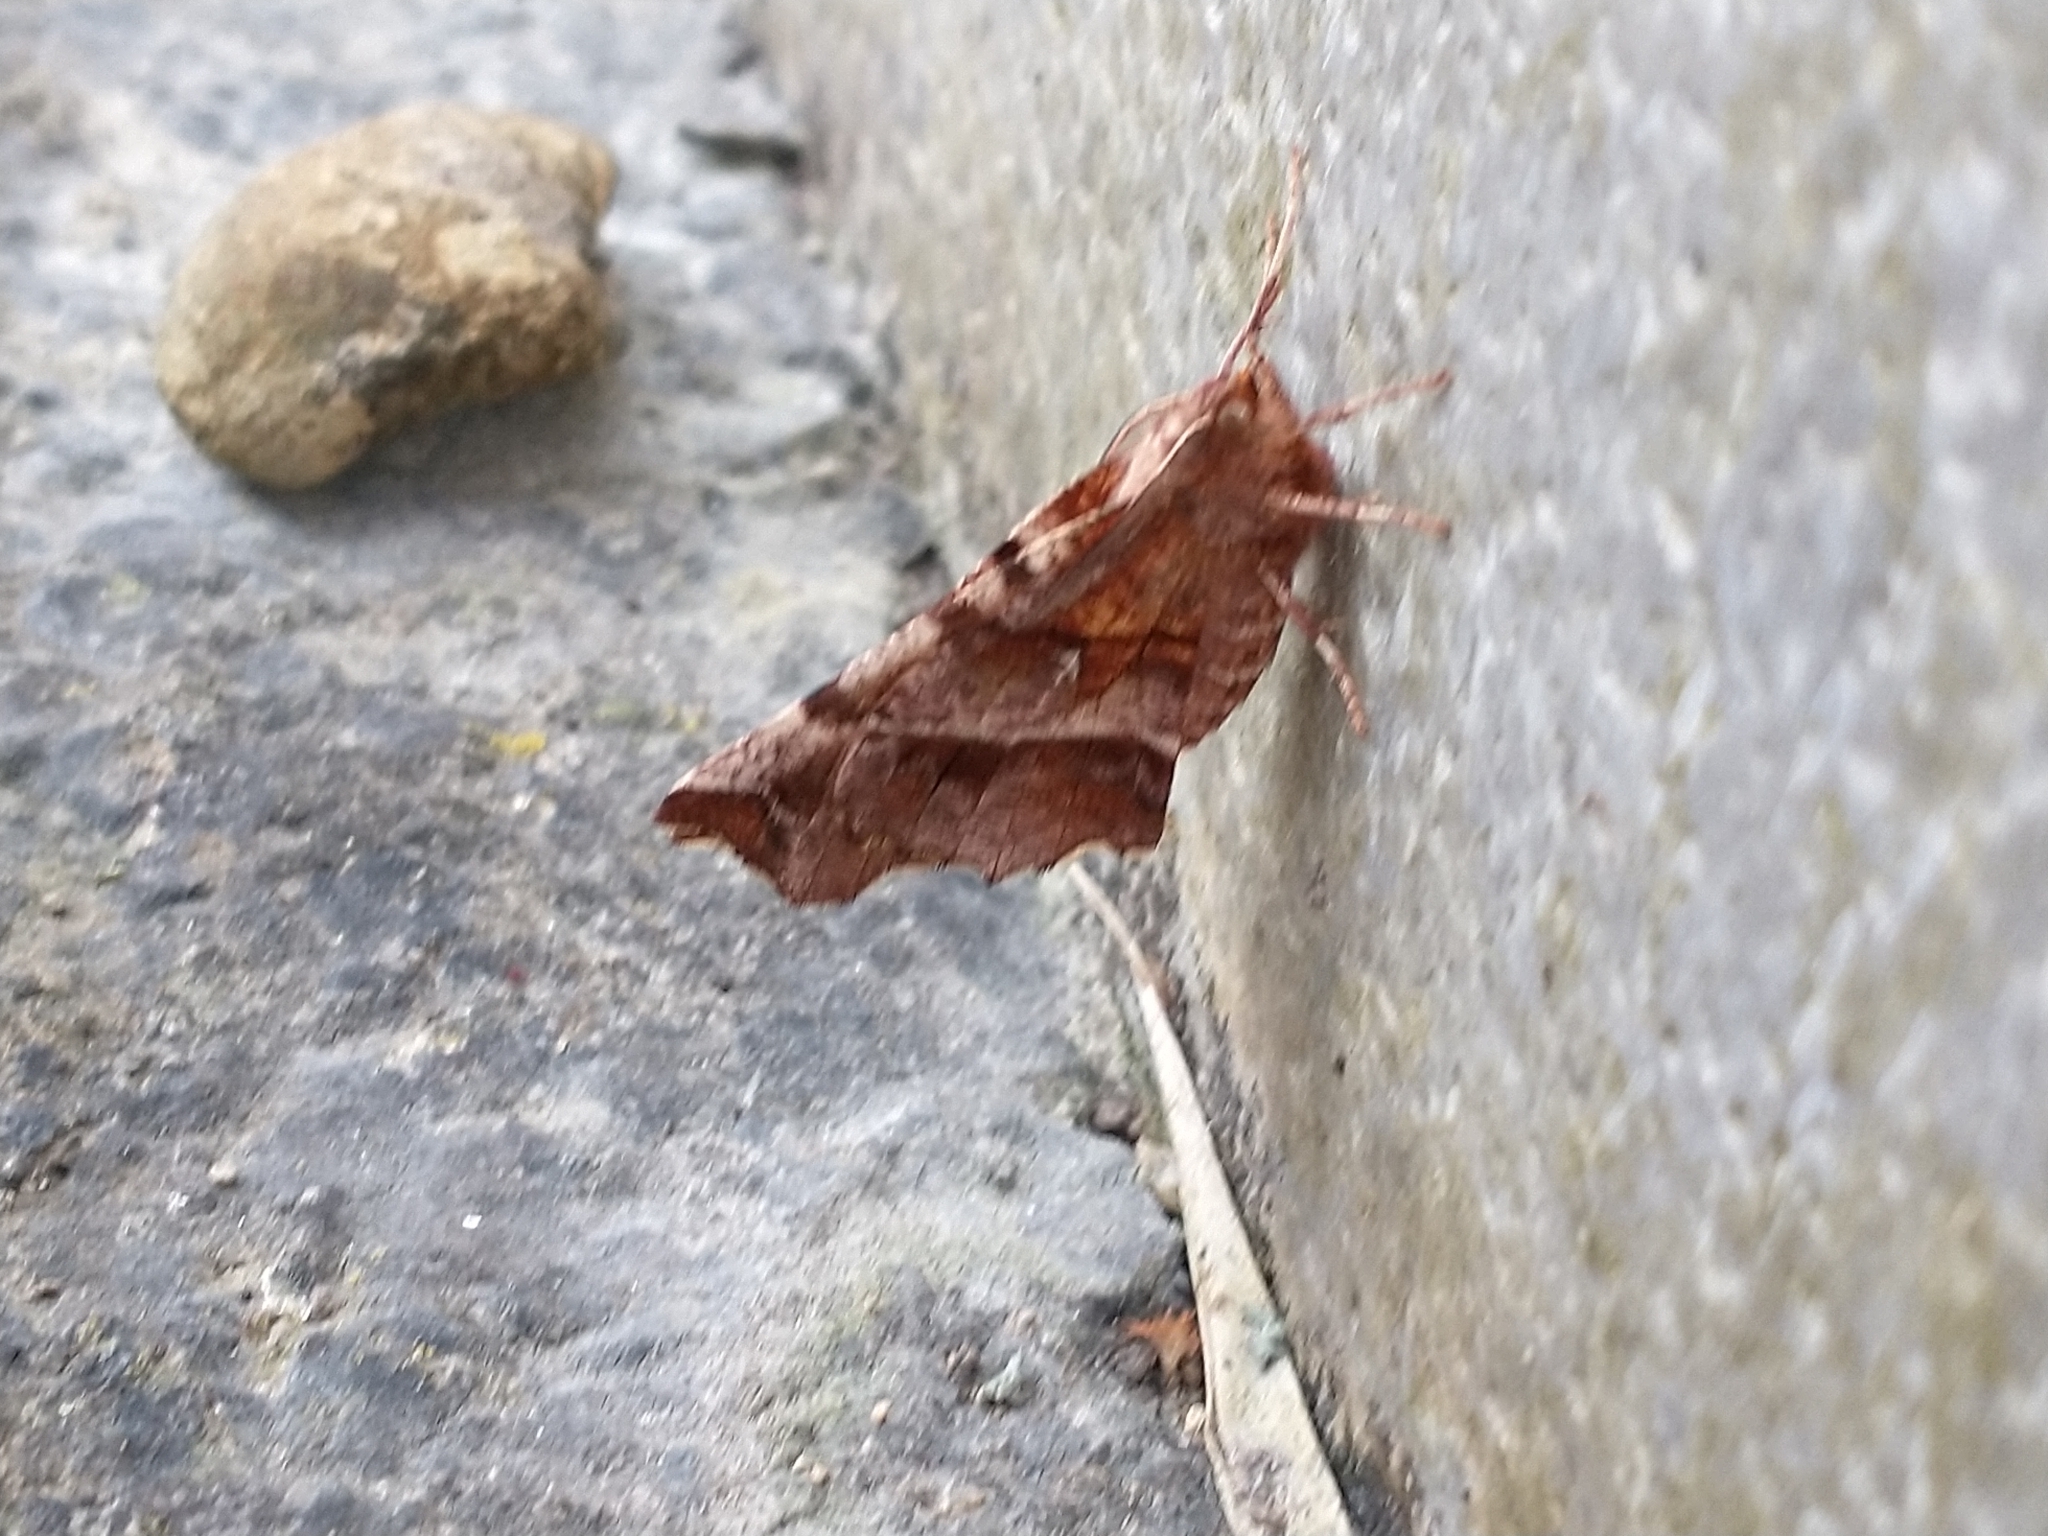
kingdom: Animalia
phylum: Arthropoda
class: Insecta
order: Lepidoptera
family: Geometridae
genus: Selenia
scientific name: Selenia dentaria
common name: Early thorn
